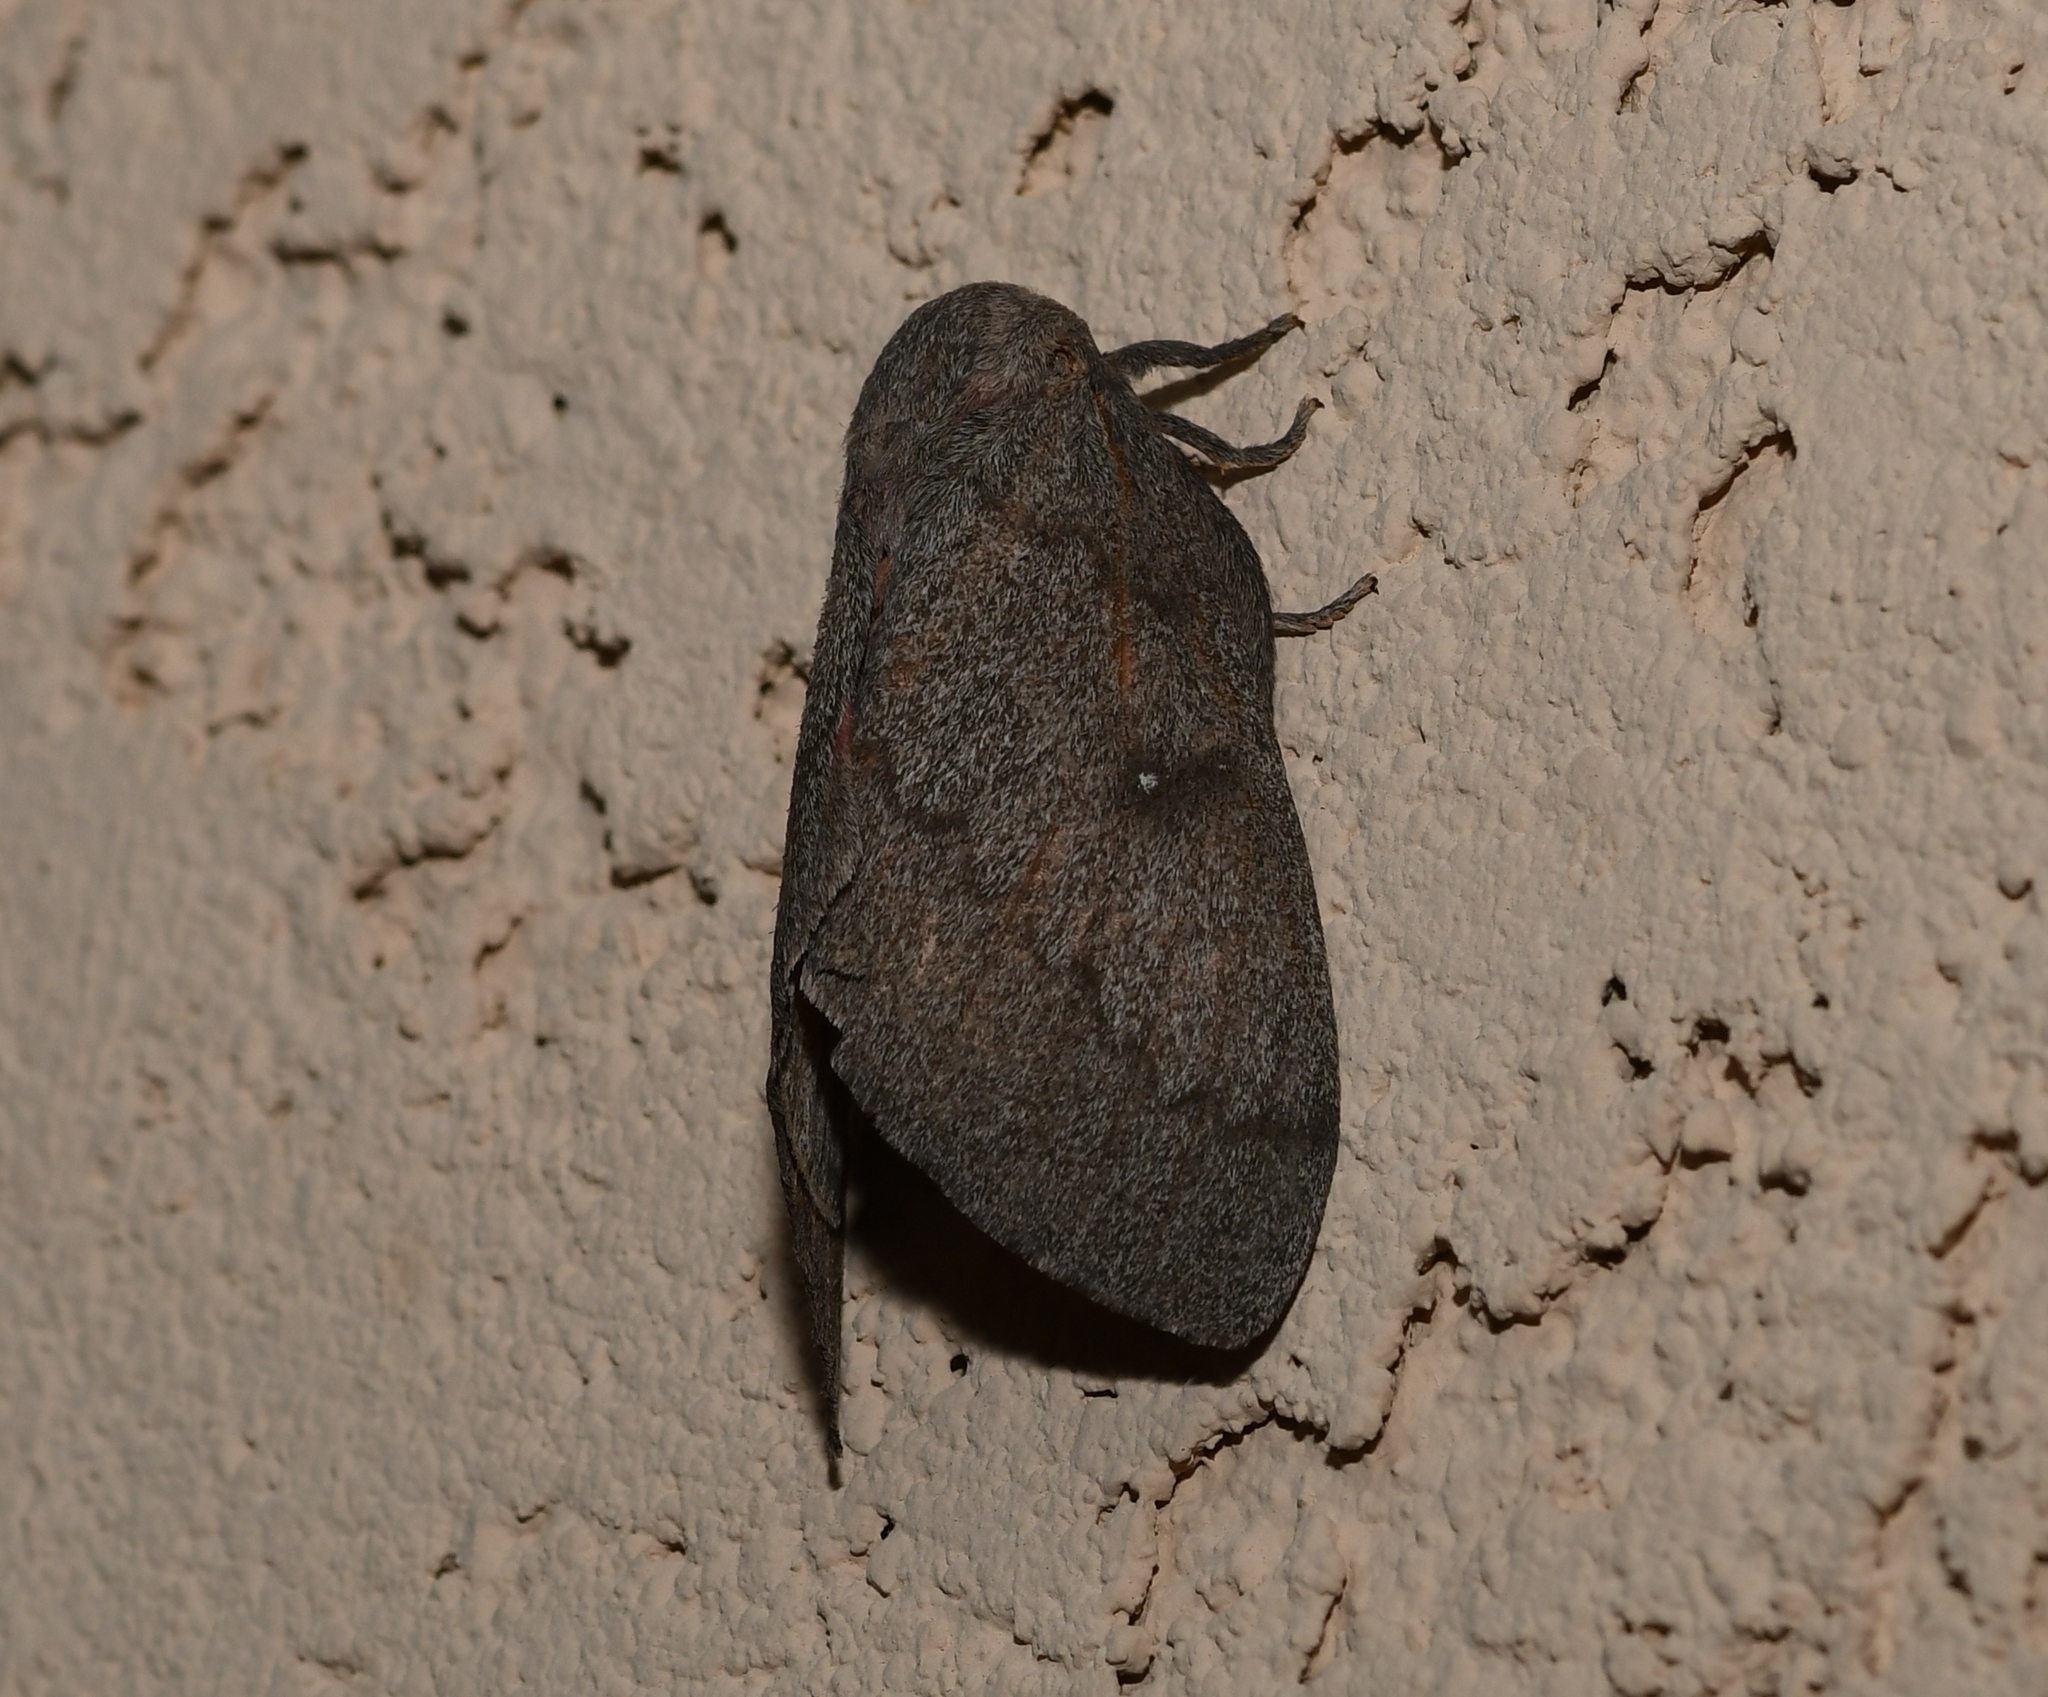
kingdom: Animalia
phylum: Arthropoda
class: Insecta
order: Lepidoptera
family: Saturniidae
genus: Syssphinx
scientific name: Syssphinx hubbardi
